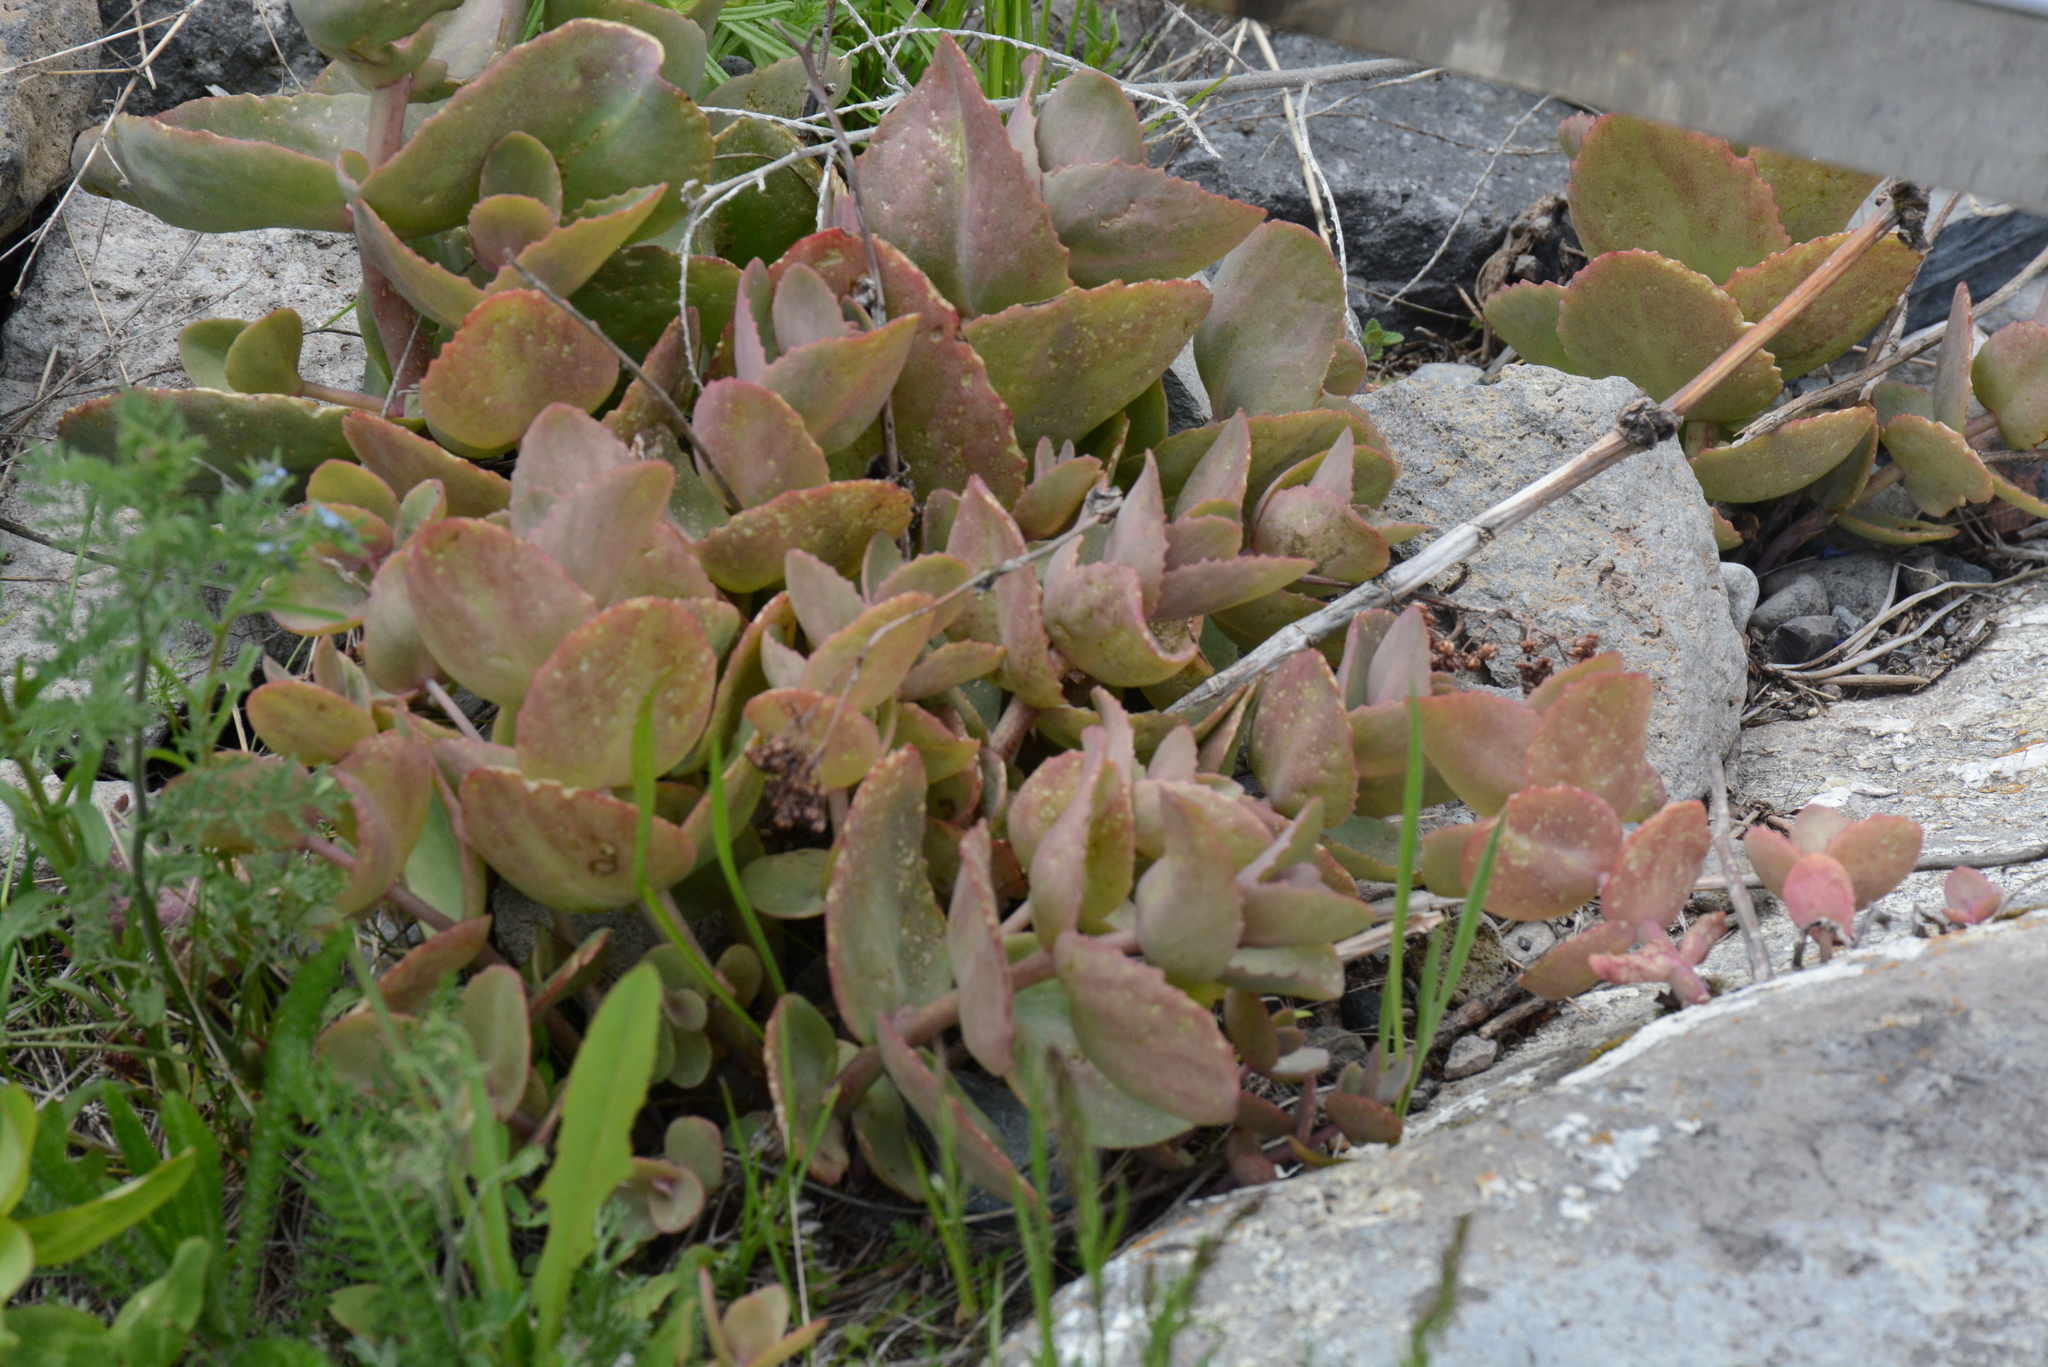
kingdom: Plantae
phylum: Tracheophyta
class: Magnoliopsida
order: Saxifragales
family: Crassulaceae
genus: Hylotelephium
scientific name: Hylotelephium maximum
